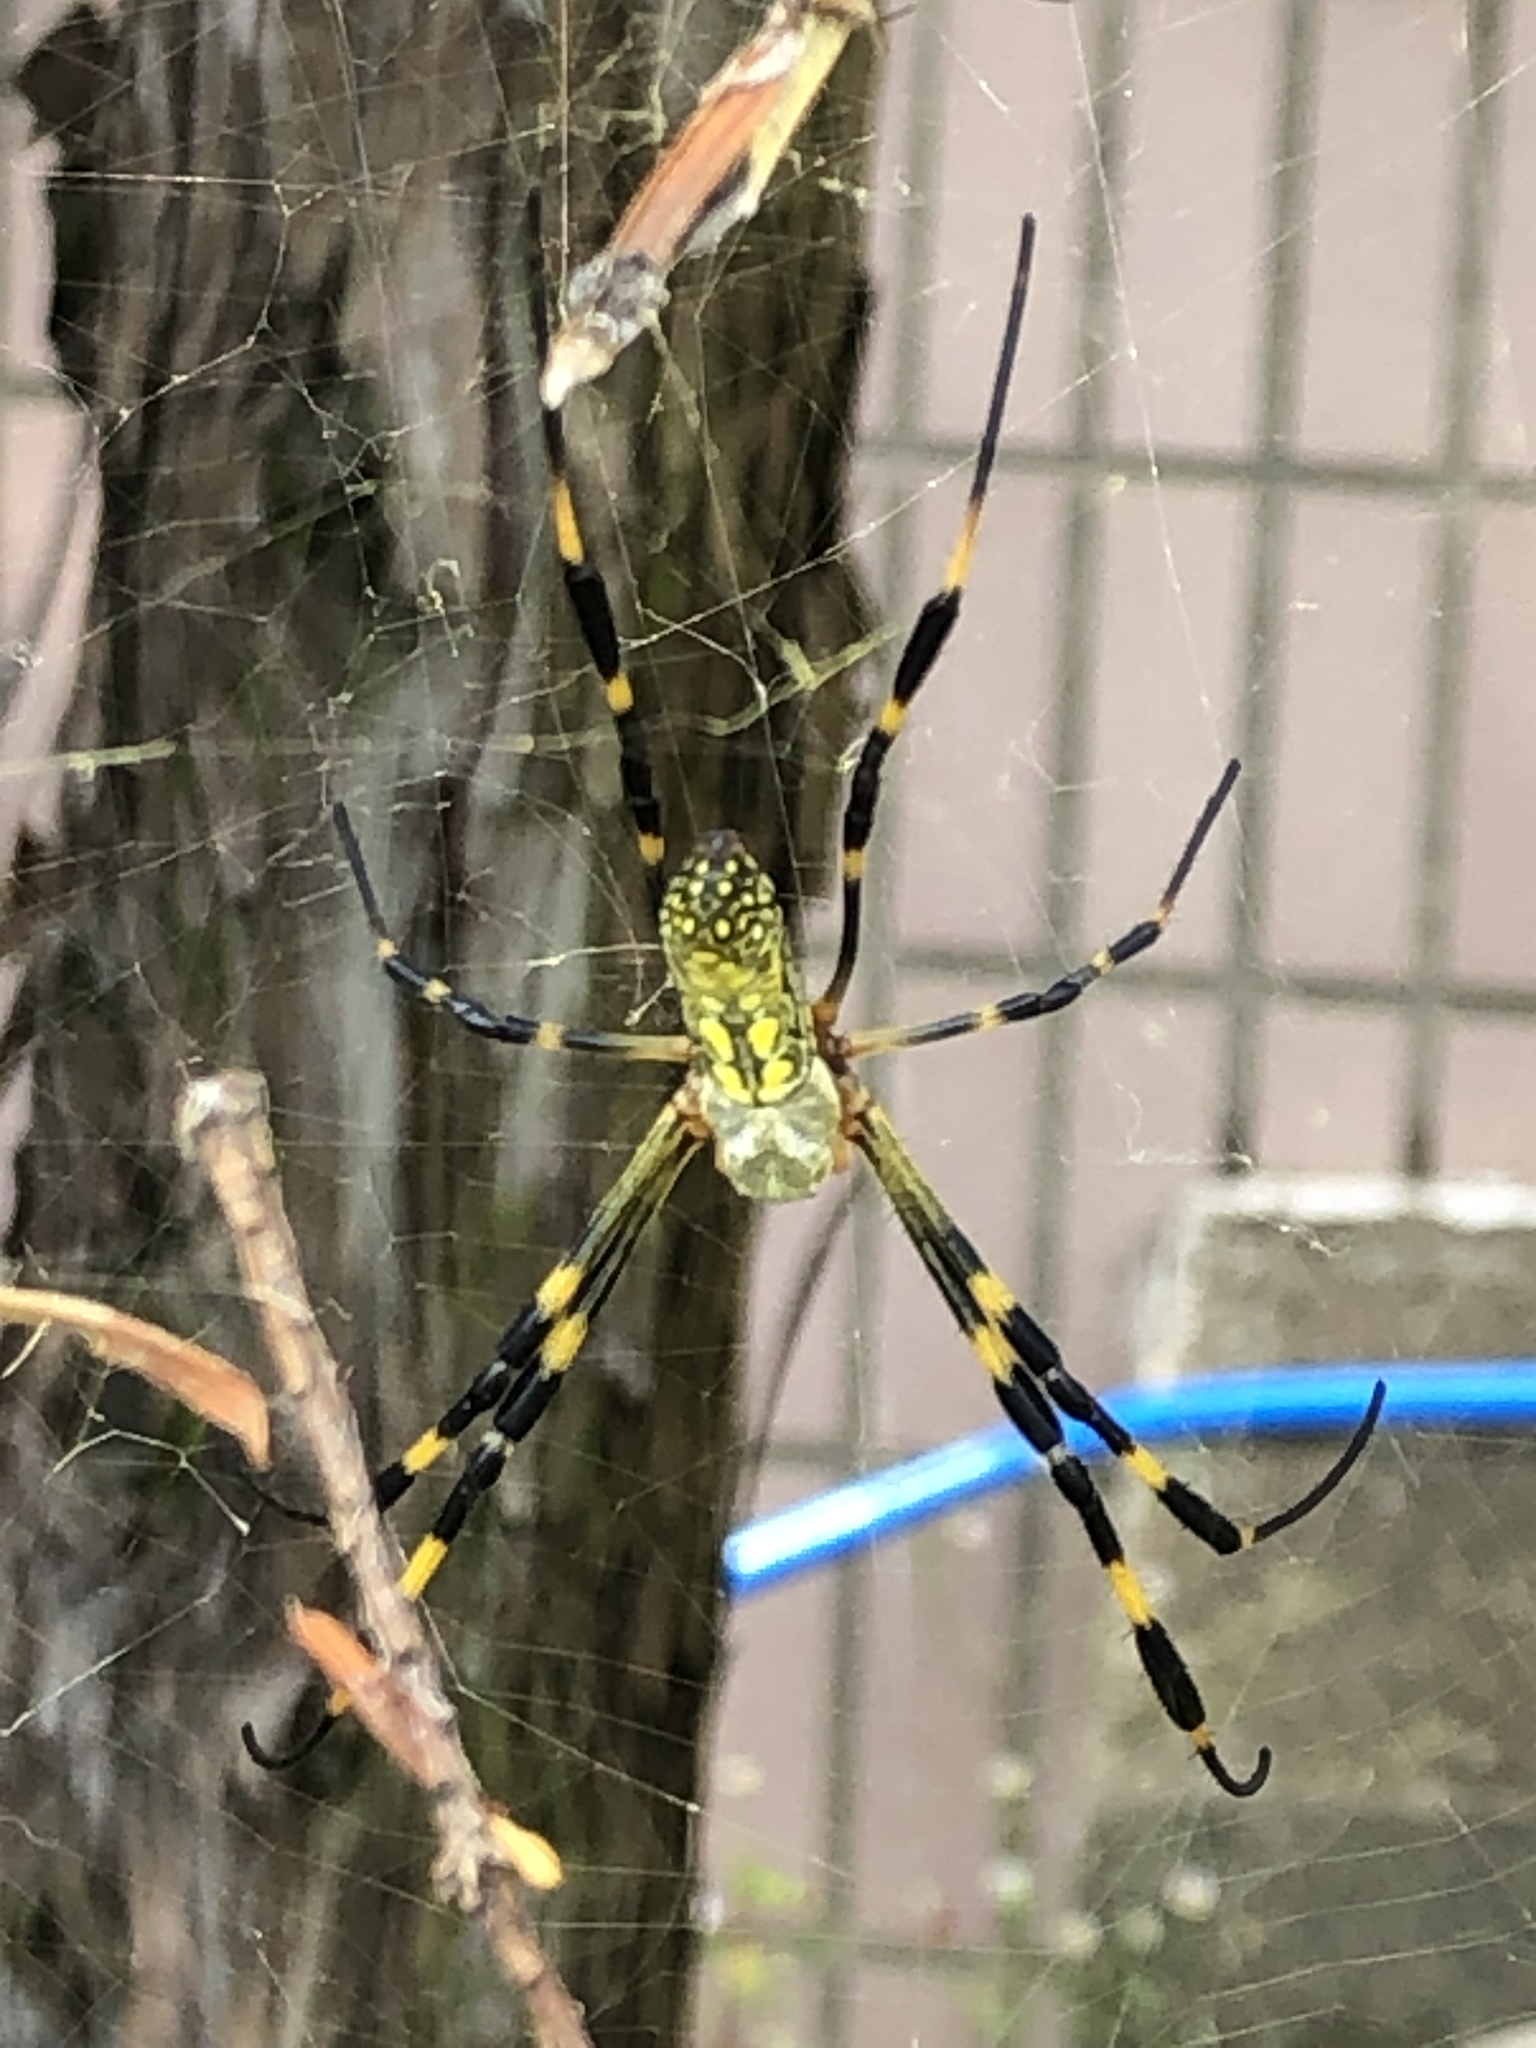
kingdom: Animalia
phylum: Arthropoda
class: Arachnida
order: Araneae
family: Araneidae
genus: Trichonephila
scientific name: Trichonephila clavata
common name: Jorō spider
